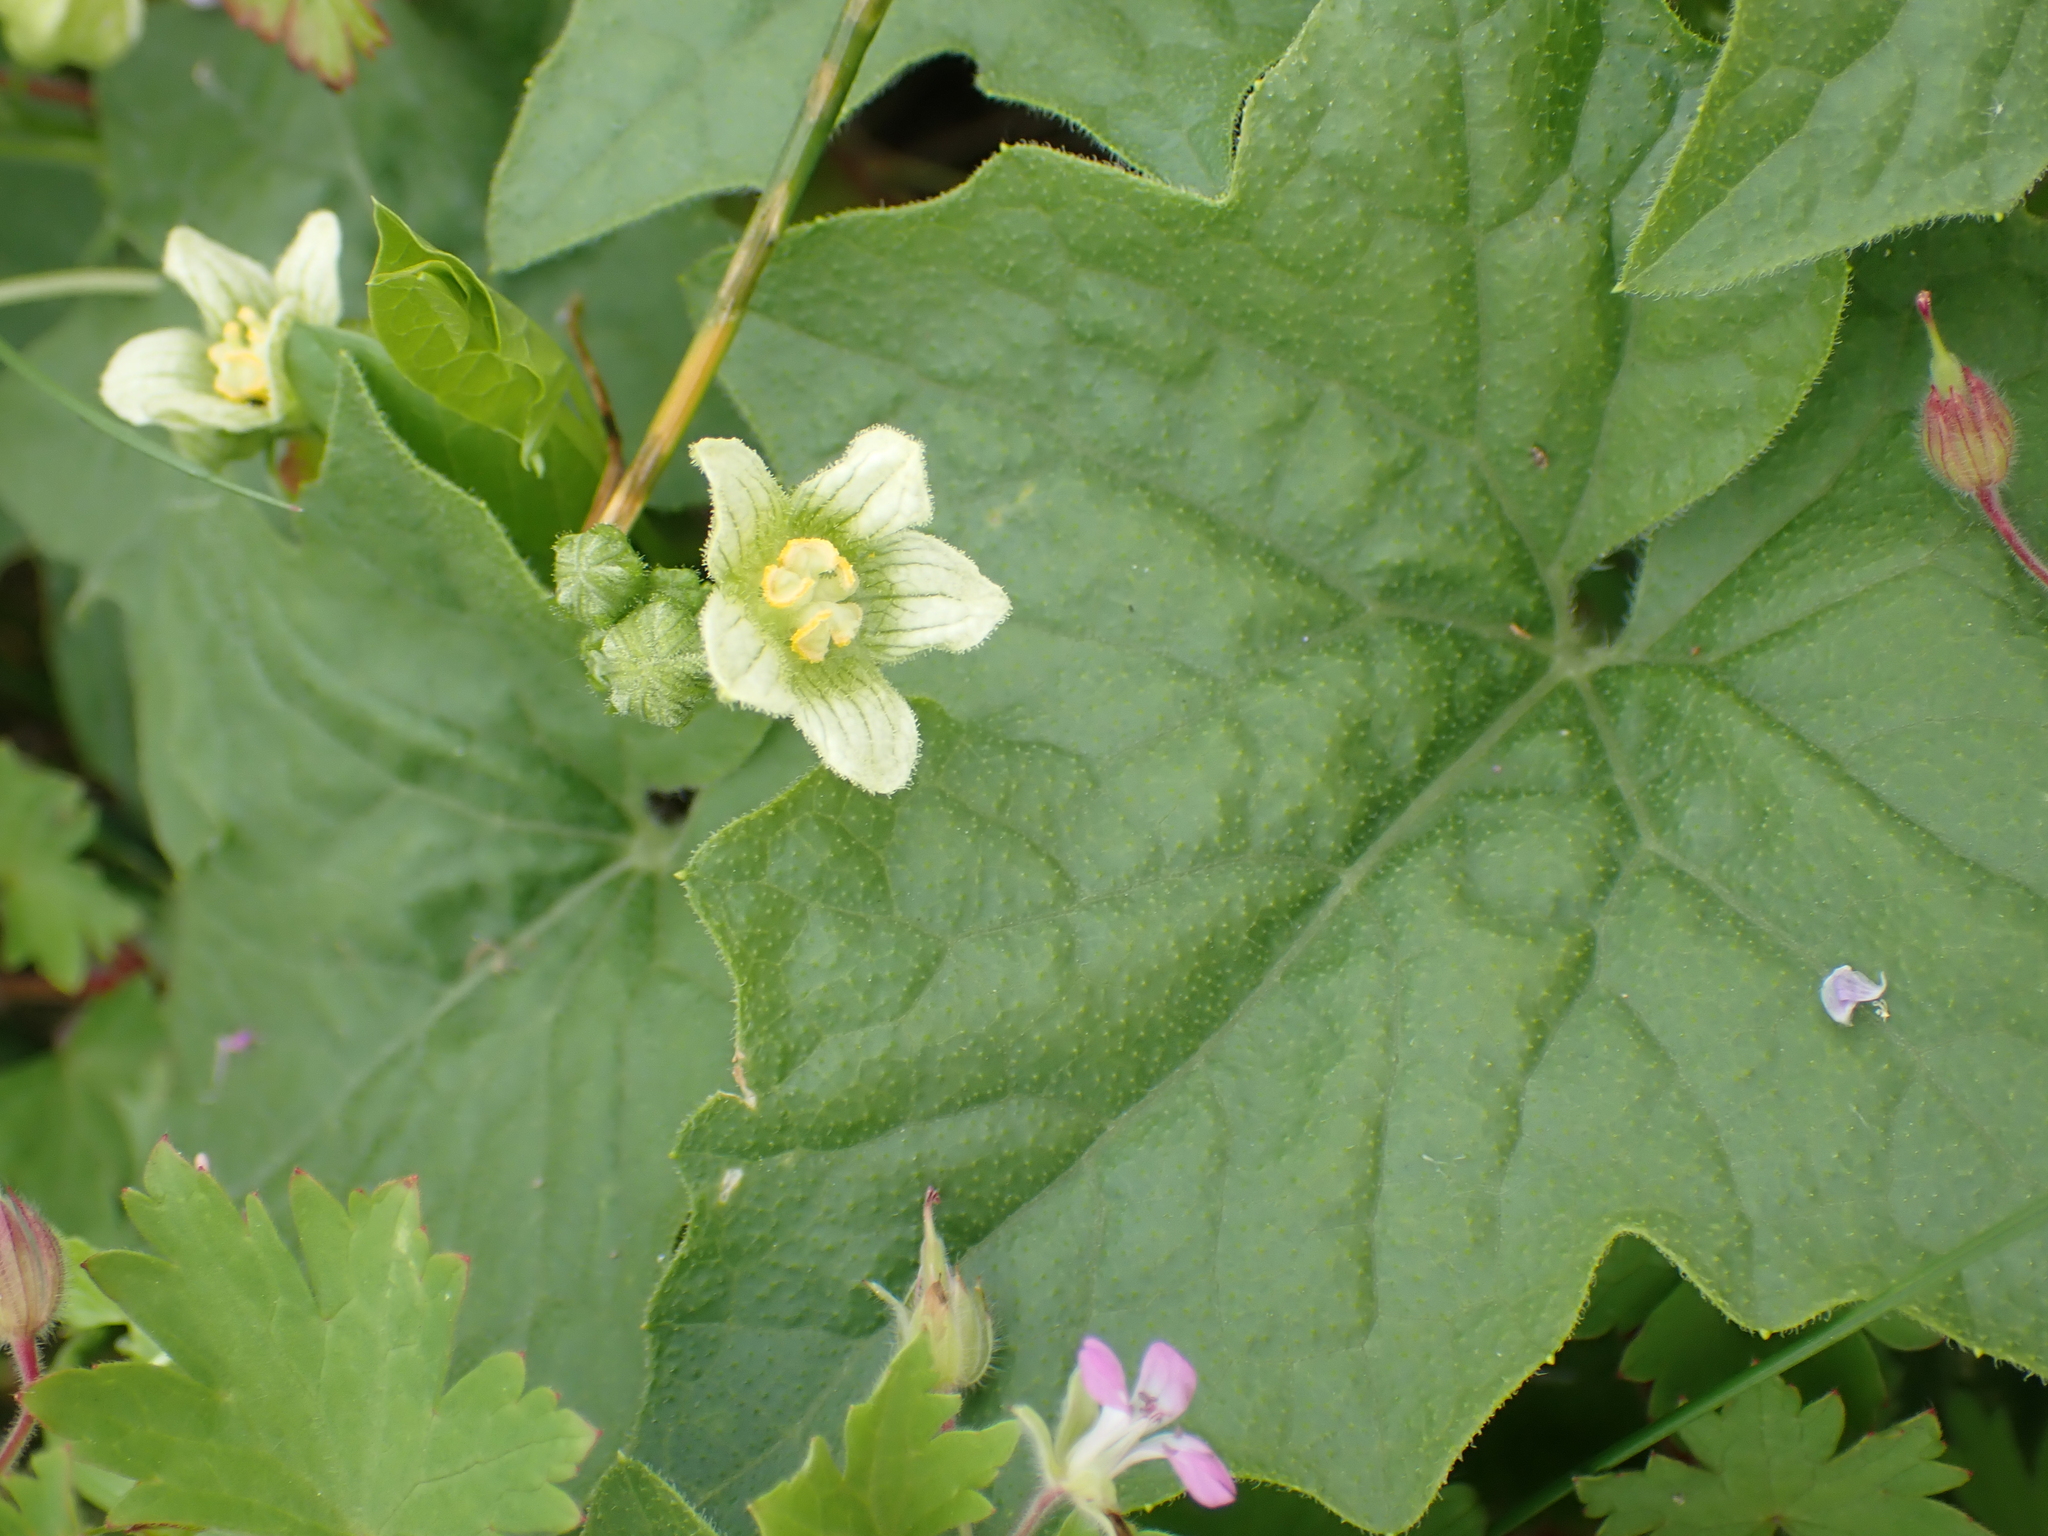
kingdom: Plantae
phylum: Tracheophyta
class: Magnoliopsida
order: Cucurbitales
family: Cucurbitaceae
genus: Bryonia
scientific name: Bryonia cretica
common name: Cretan bryony
